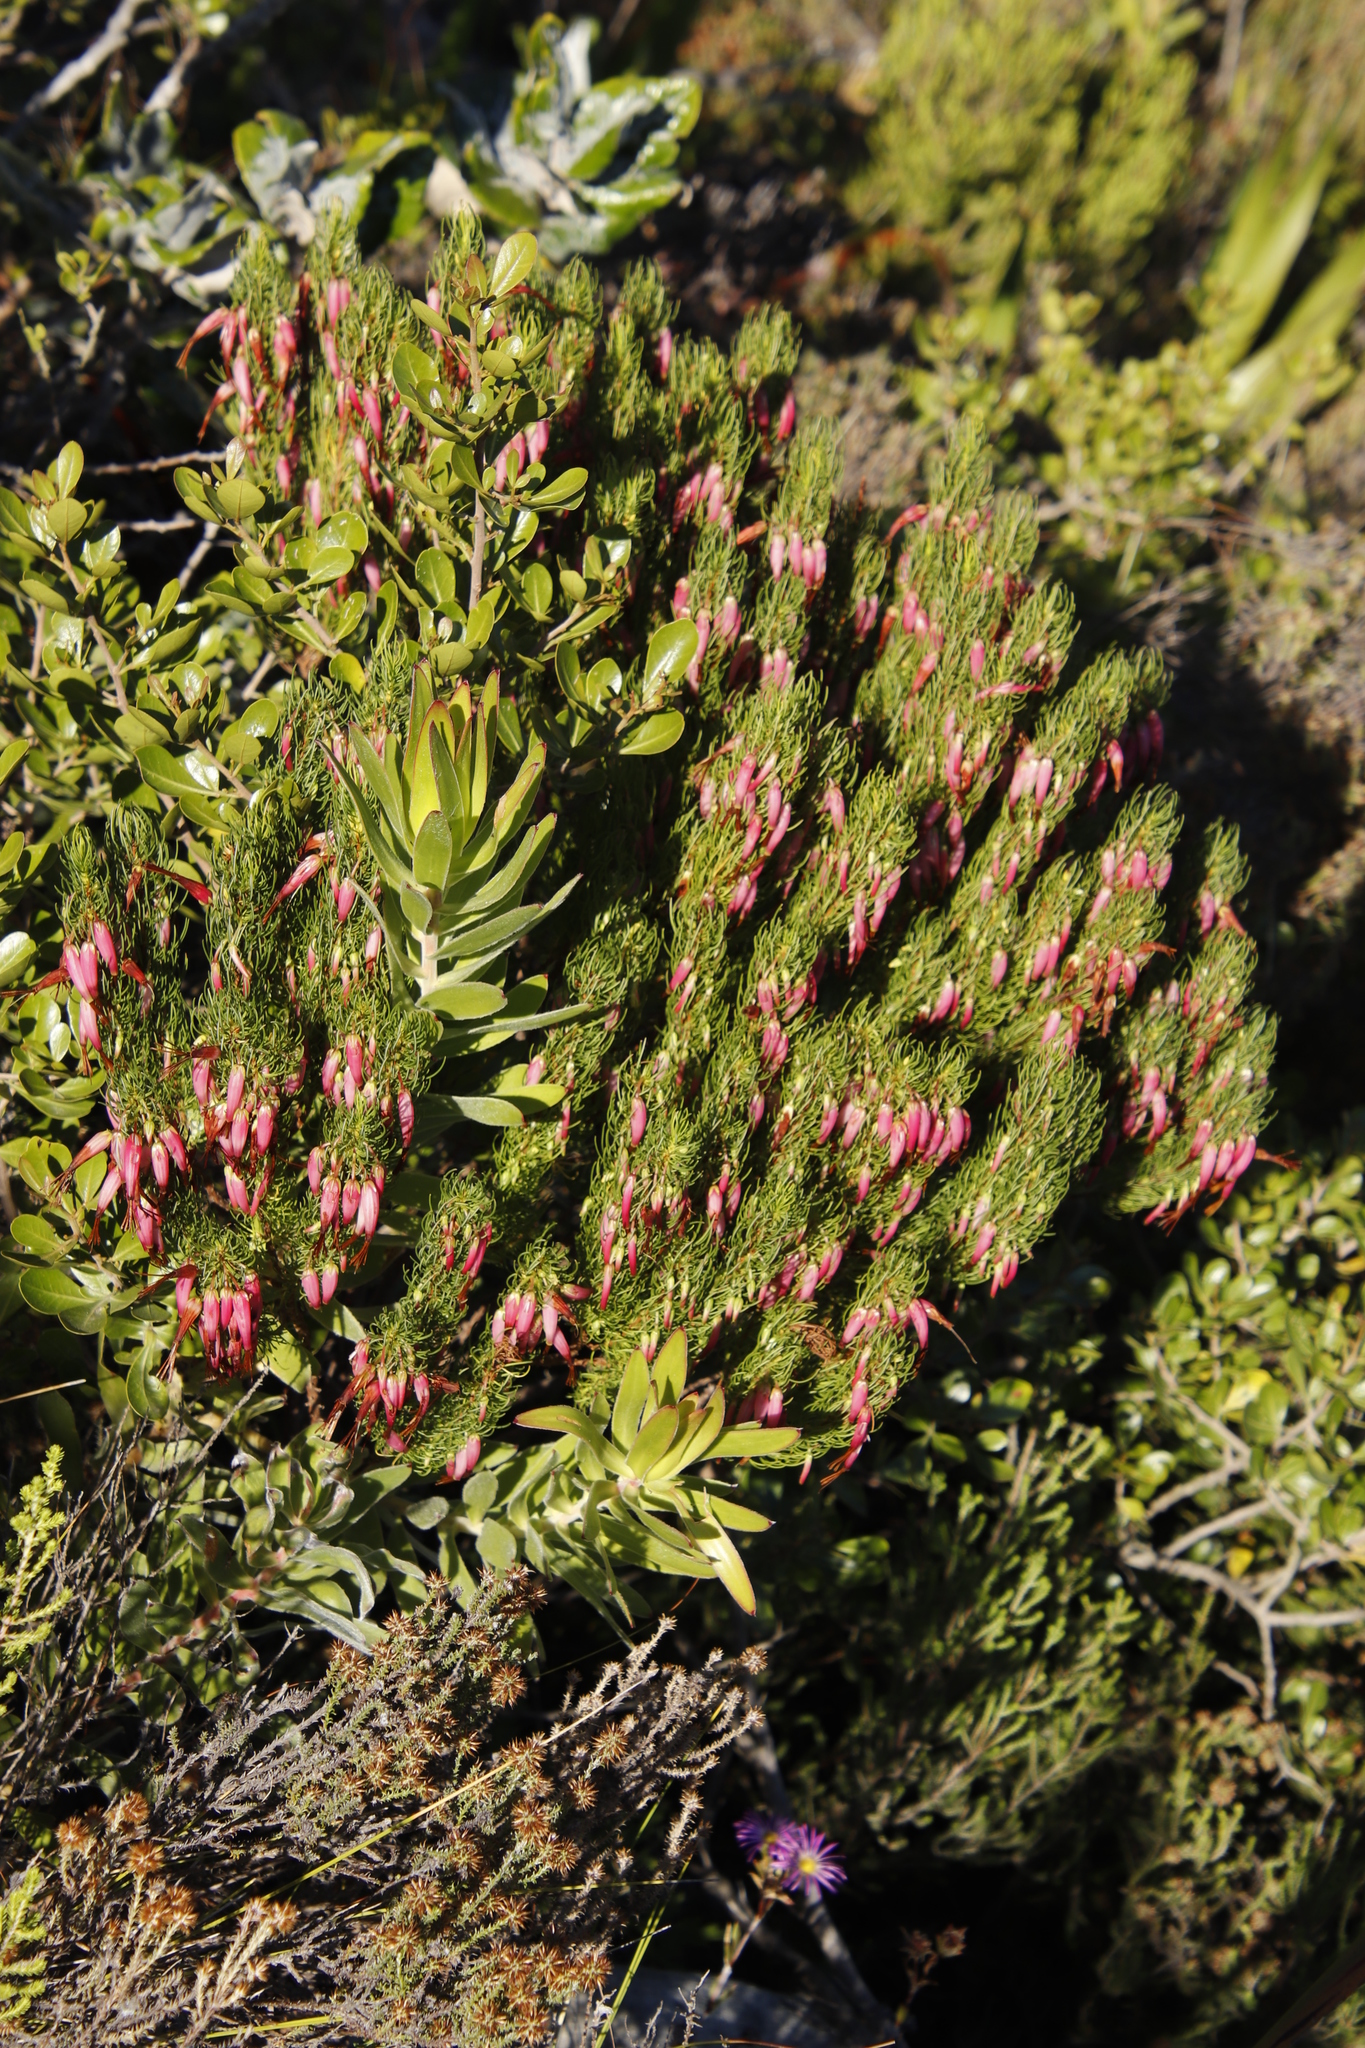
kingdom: Plantae
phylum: Tracheophyta
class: Magnoliopsida
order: Ericales
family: Ericaceae
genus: Erica
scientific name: Erica plukenetii
